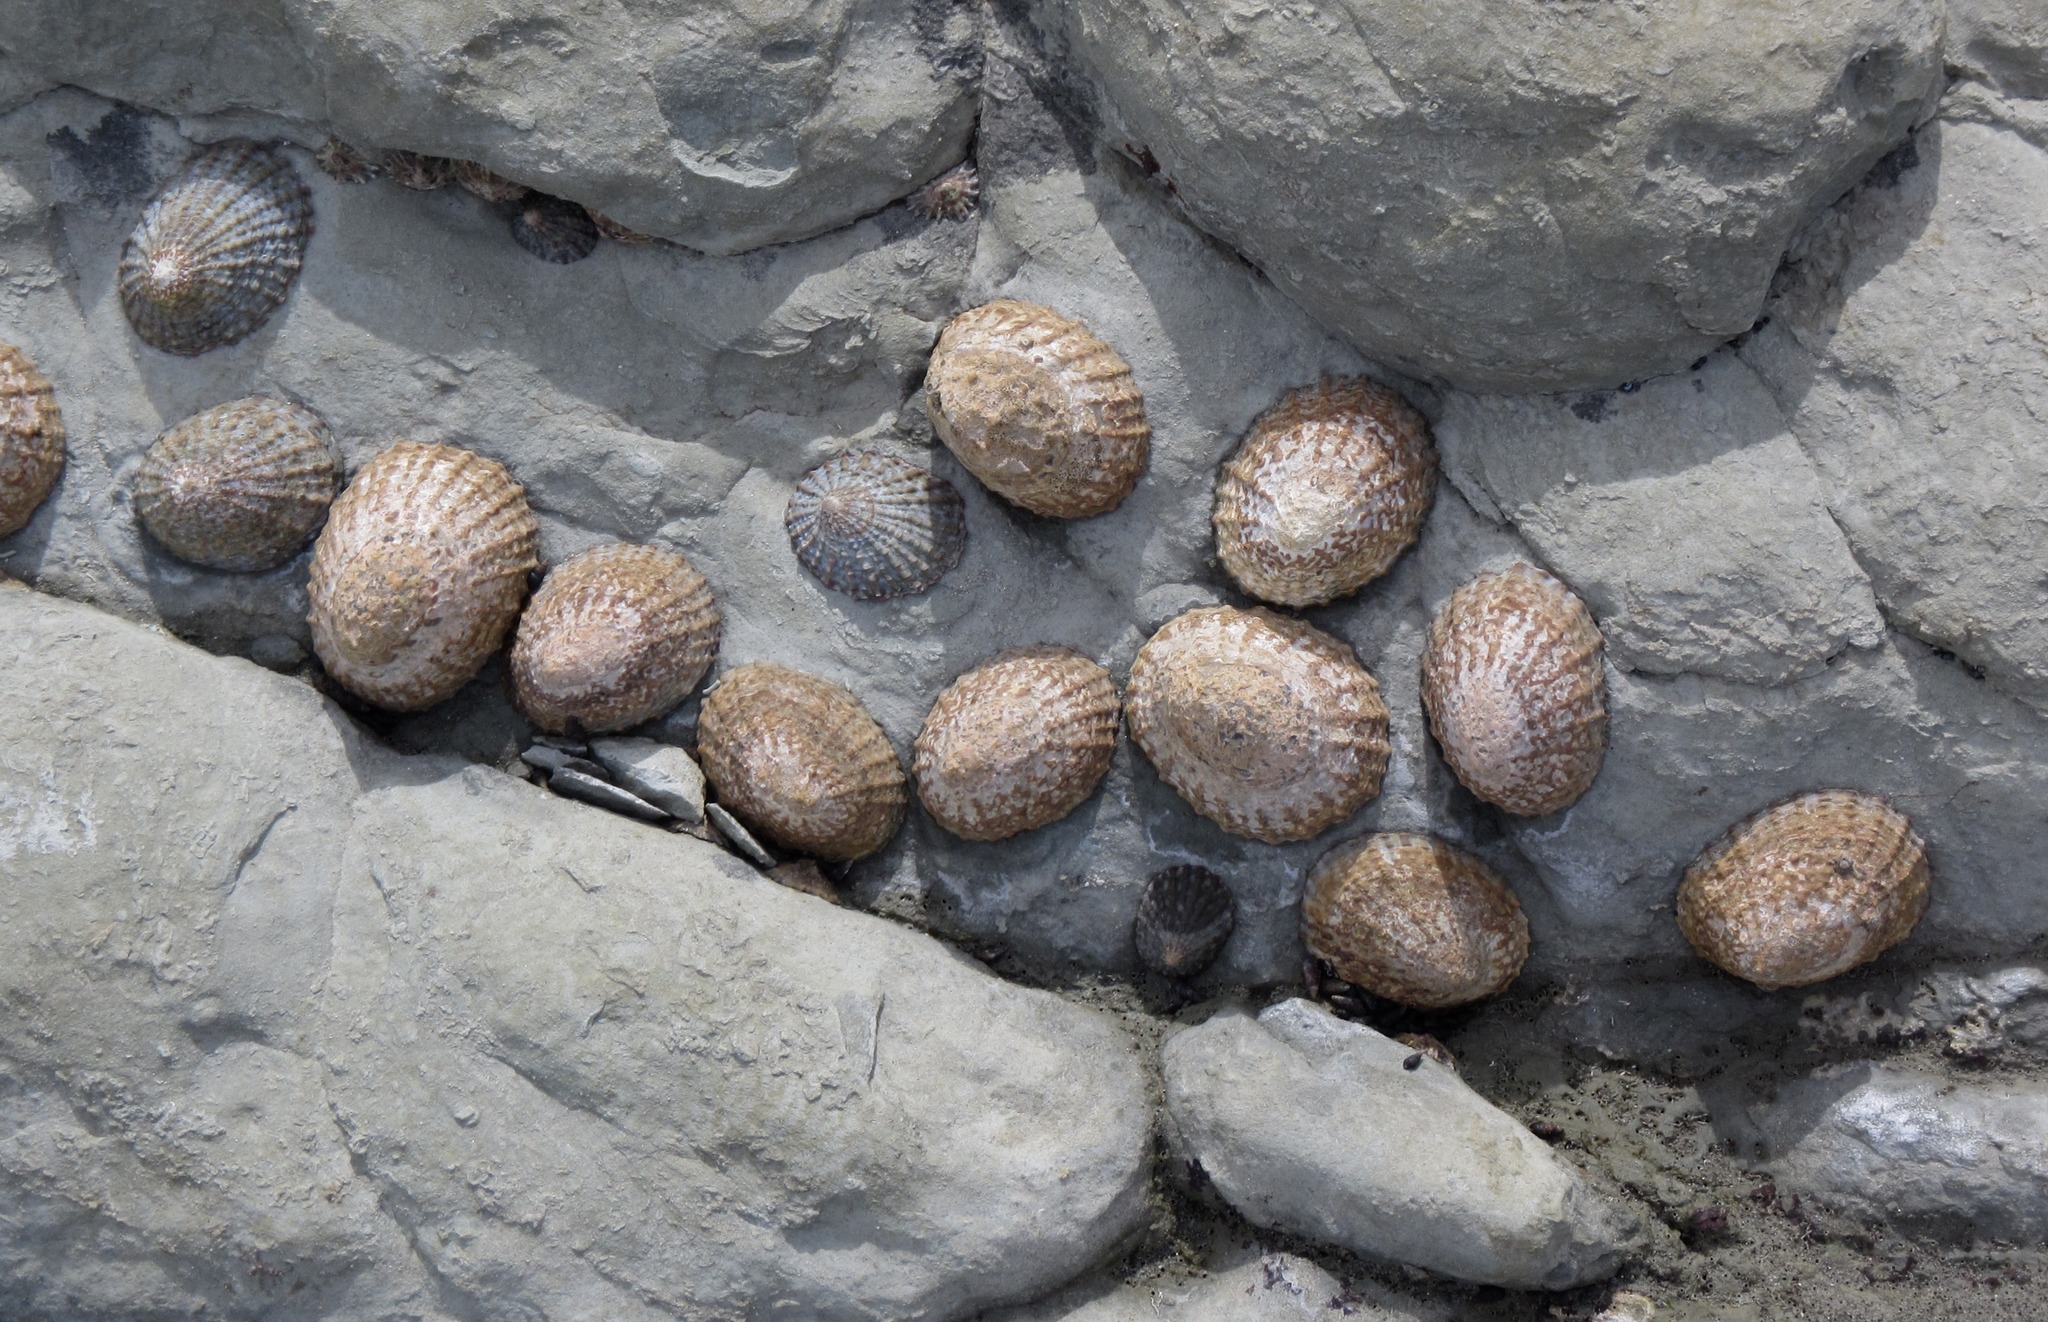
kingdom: Animalia
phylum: Mollusca
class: Gastropoda
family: Nacellidae
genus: Cellana
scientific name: Cellana denticulata
